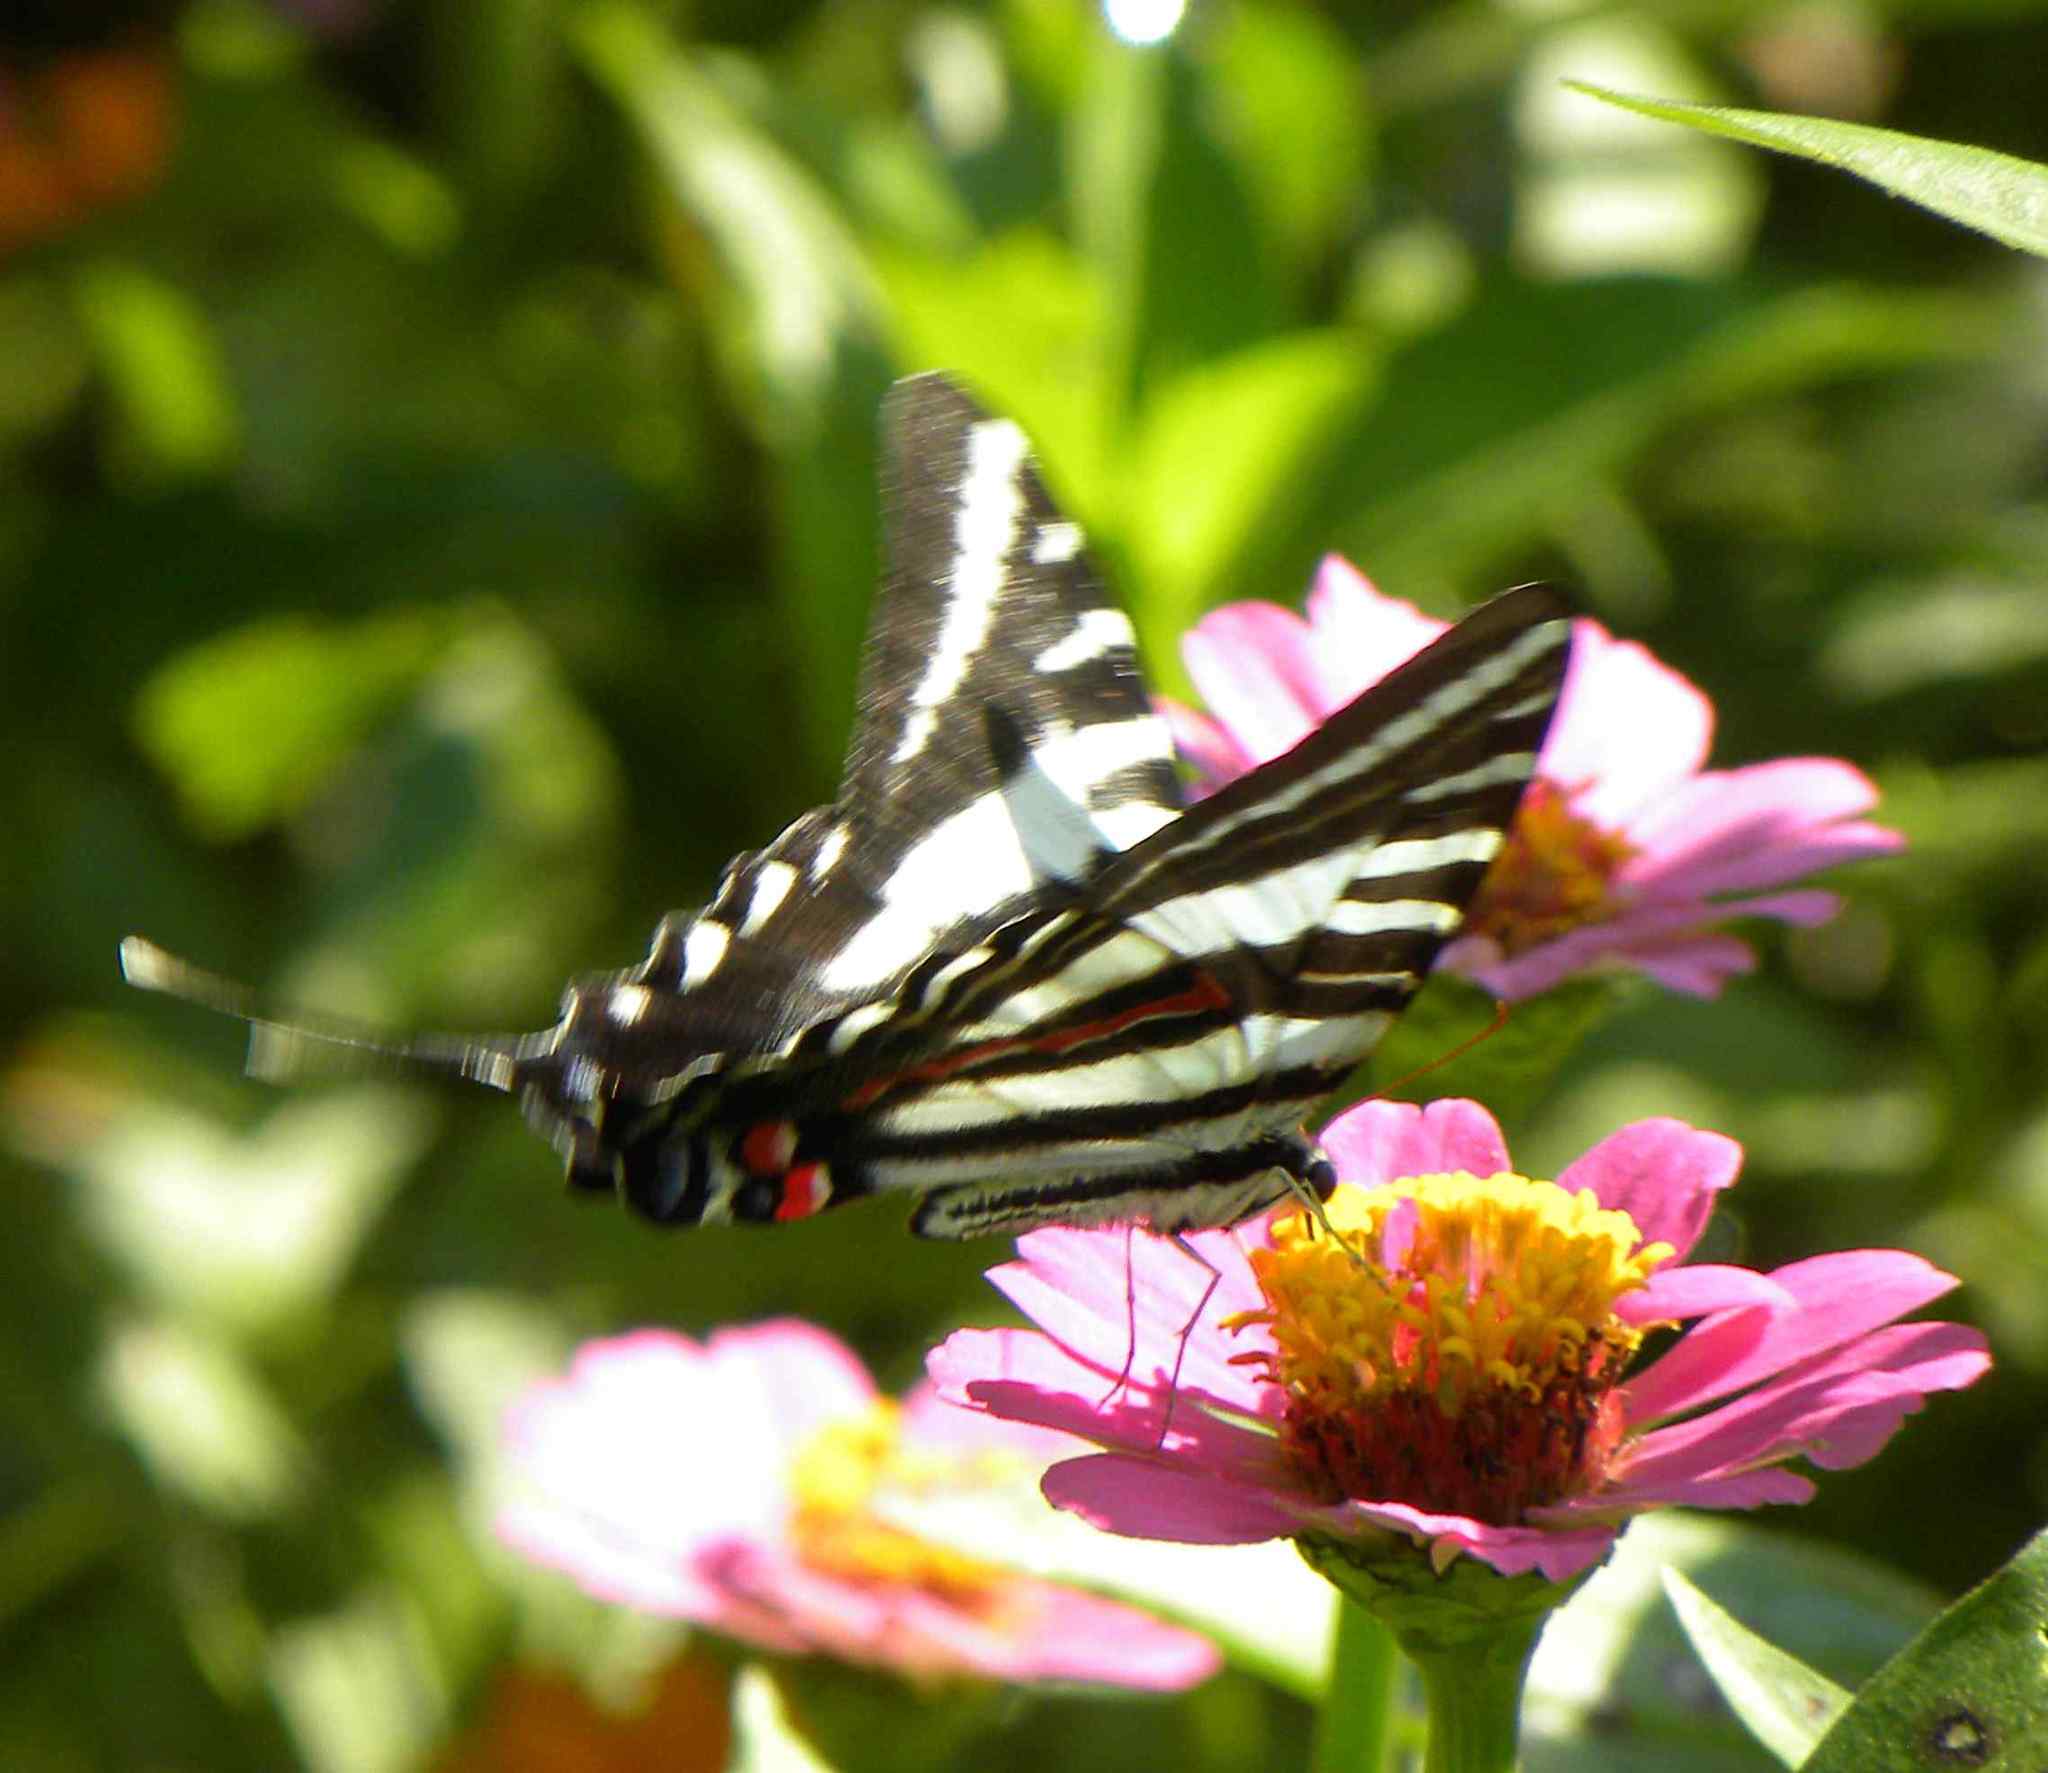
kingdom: Animalia
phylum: Arthropoda
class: Insecta
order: Lepidoptera
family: Papilionidae
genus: Protographium
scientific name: Protographium marcellus
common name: Zebra swallowtail
